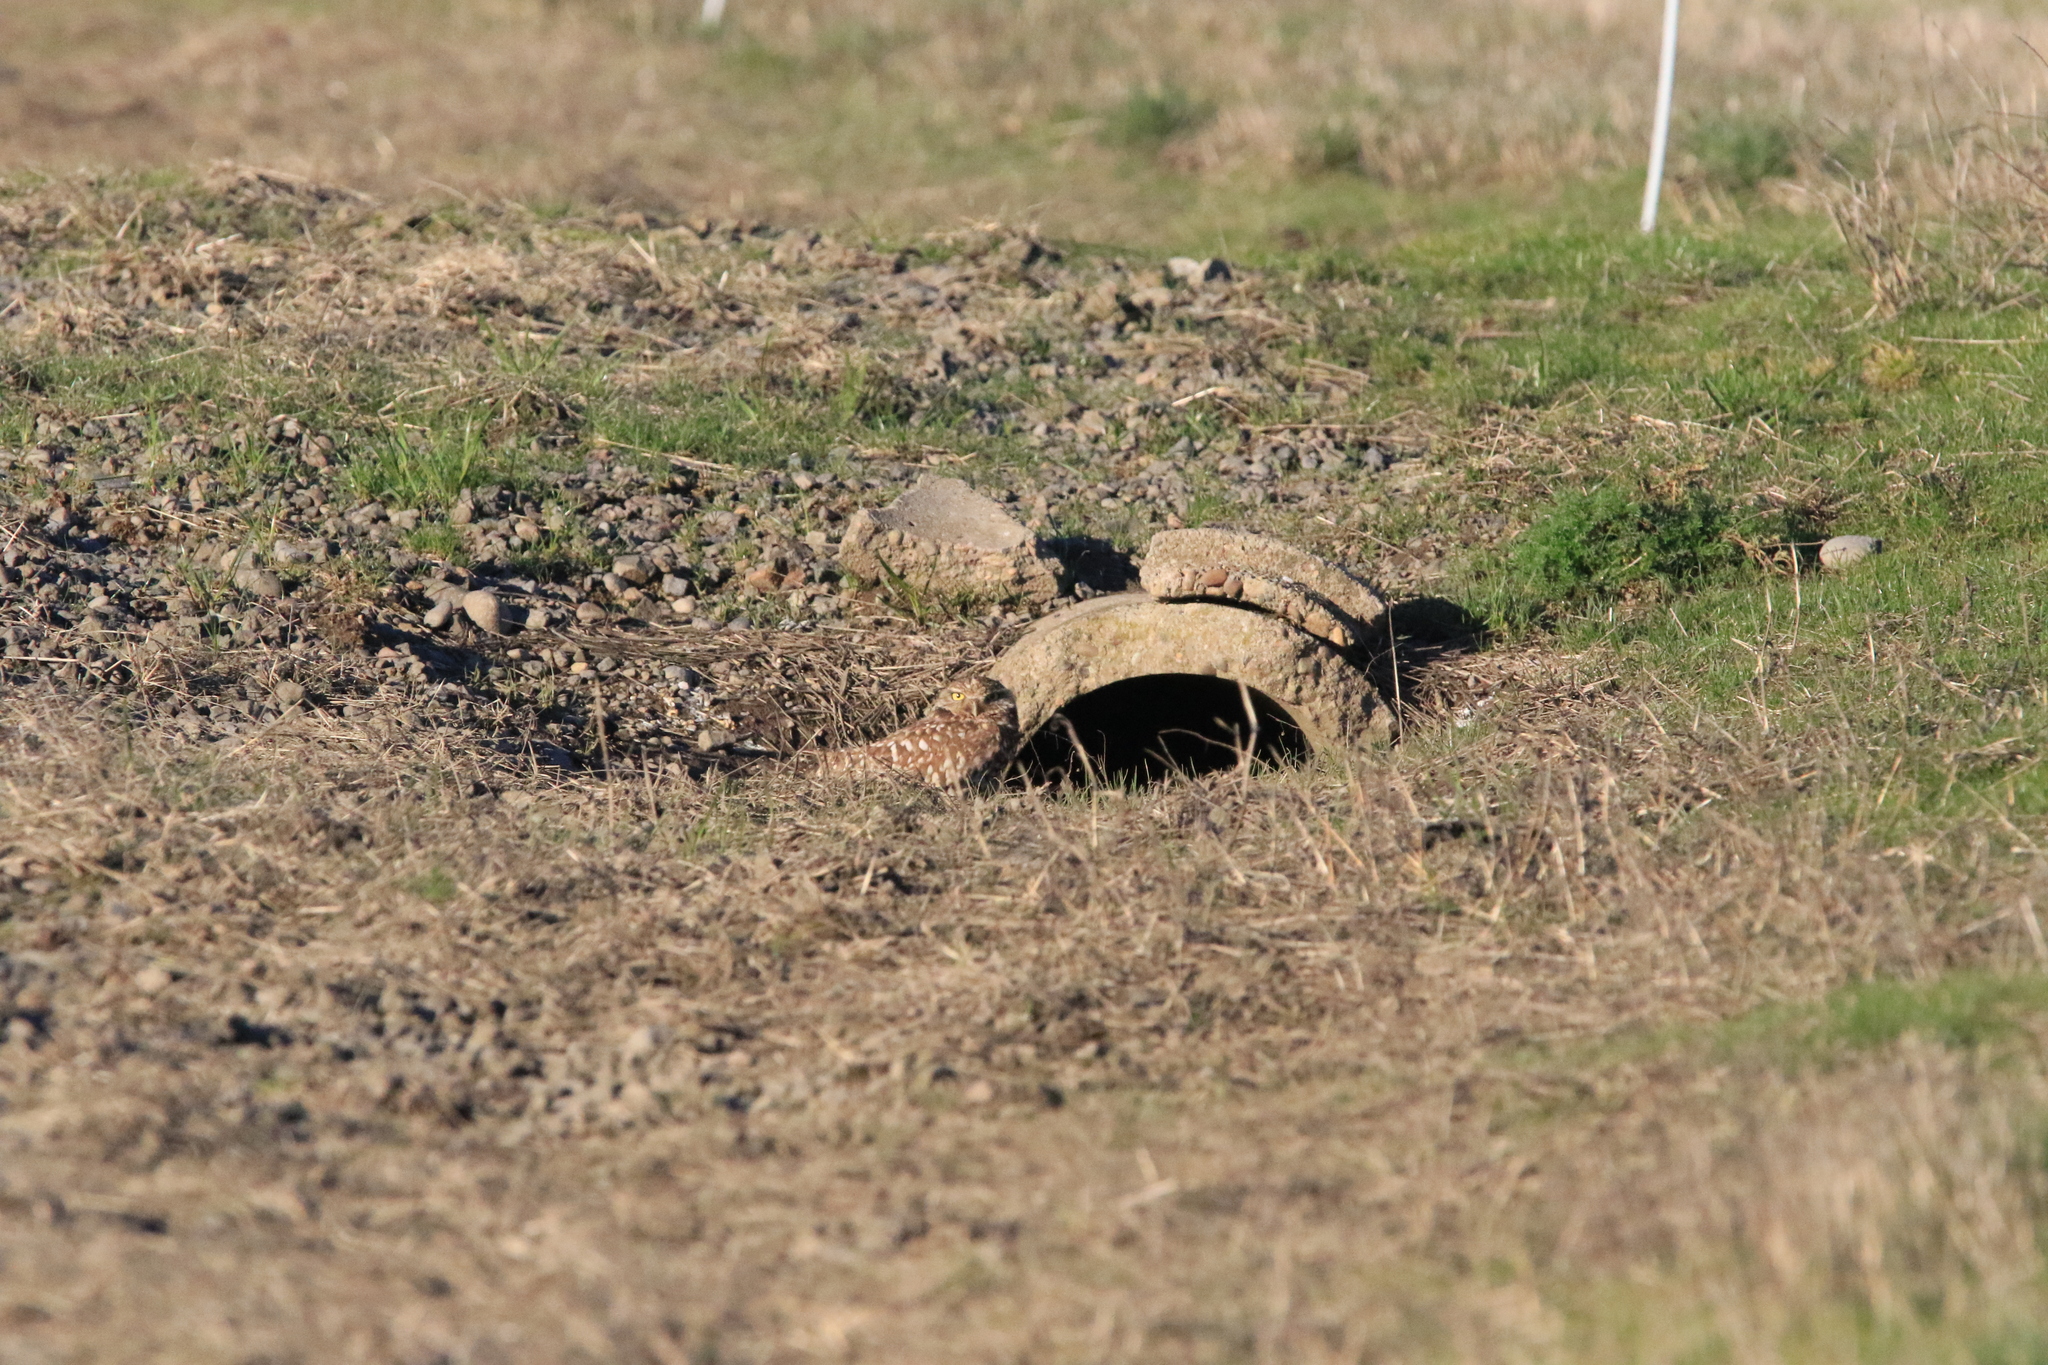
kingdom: Animalia
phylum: Chordata
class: Aves
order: Strigiformes
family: Strigidae
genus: Athene
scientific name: Athene cunicularia
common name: Burrowing owl
